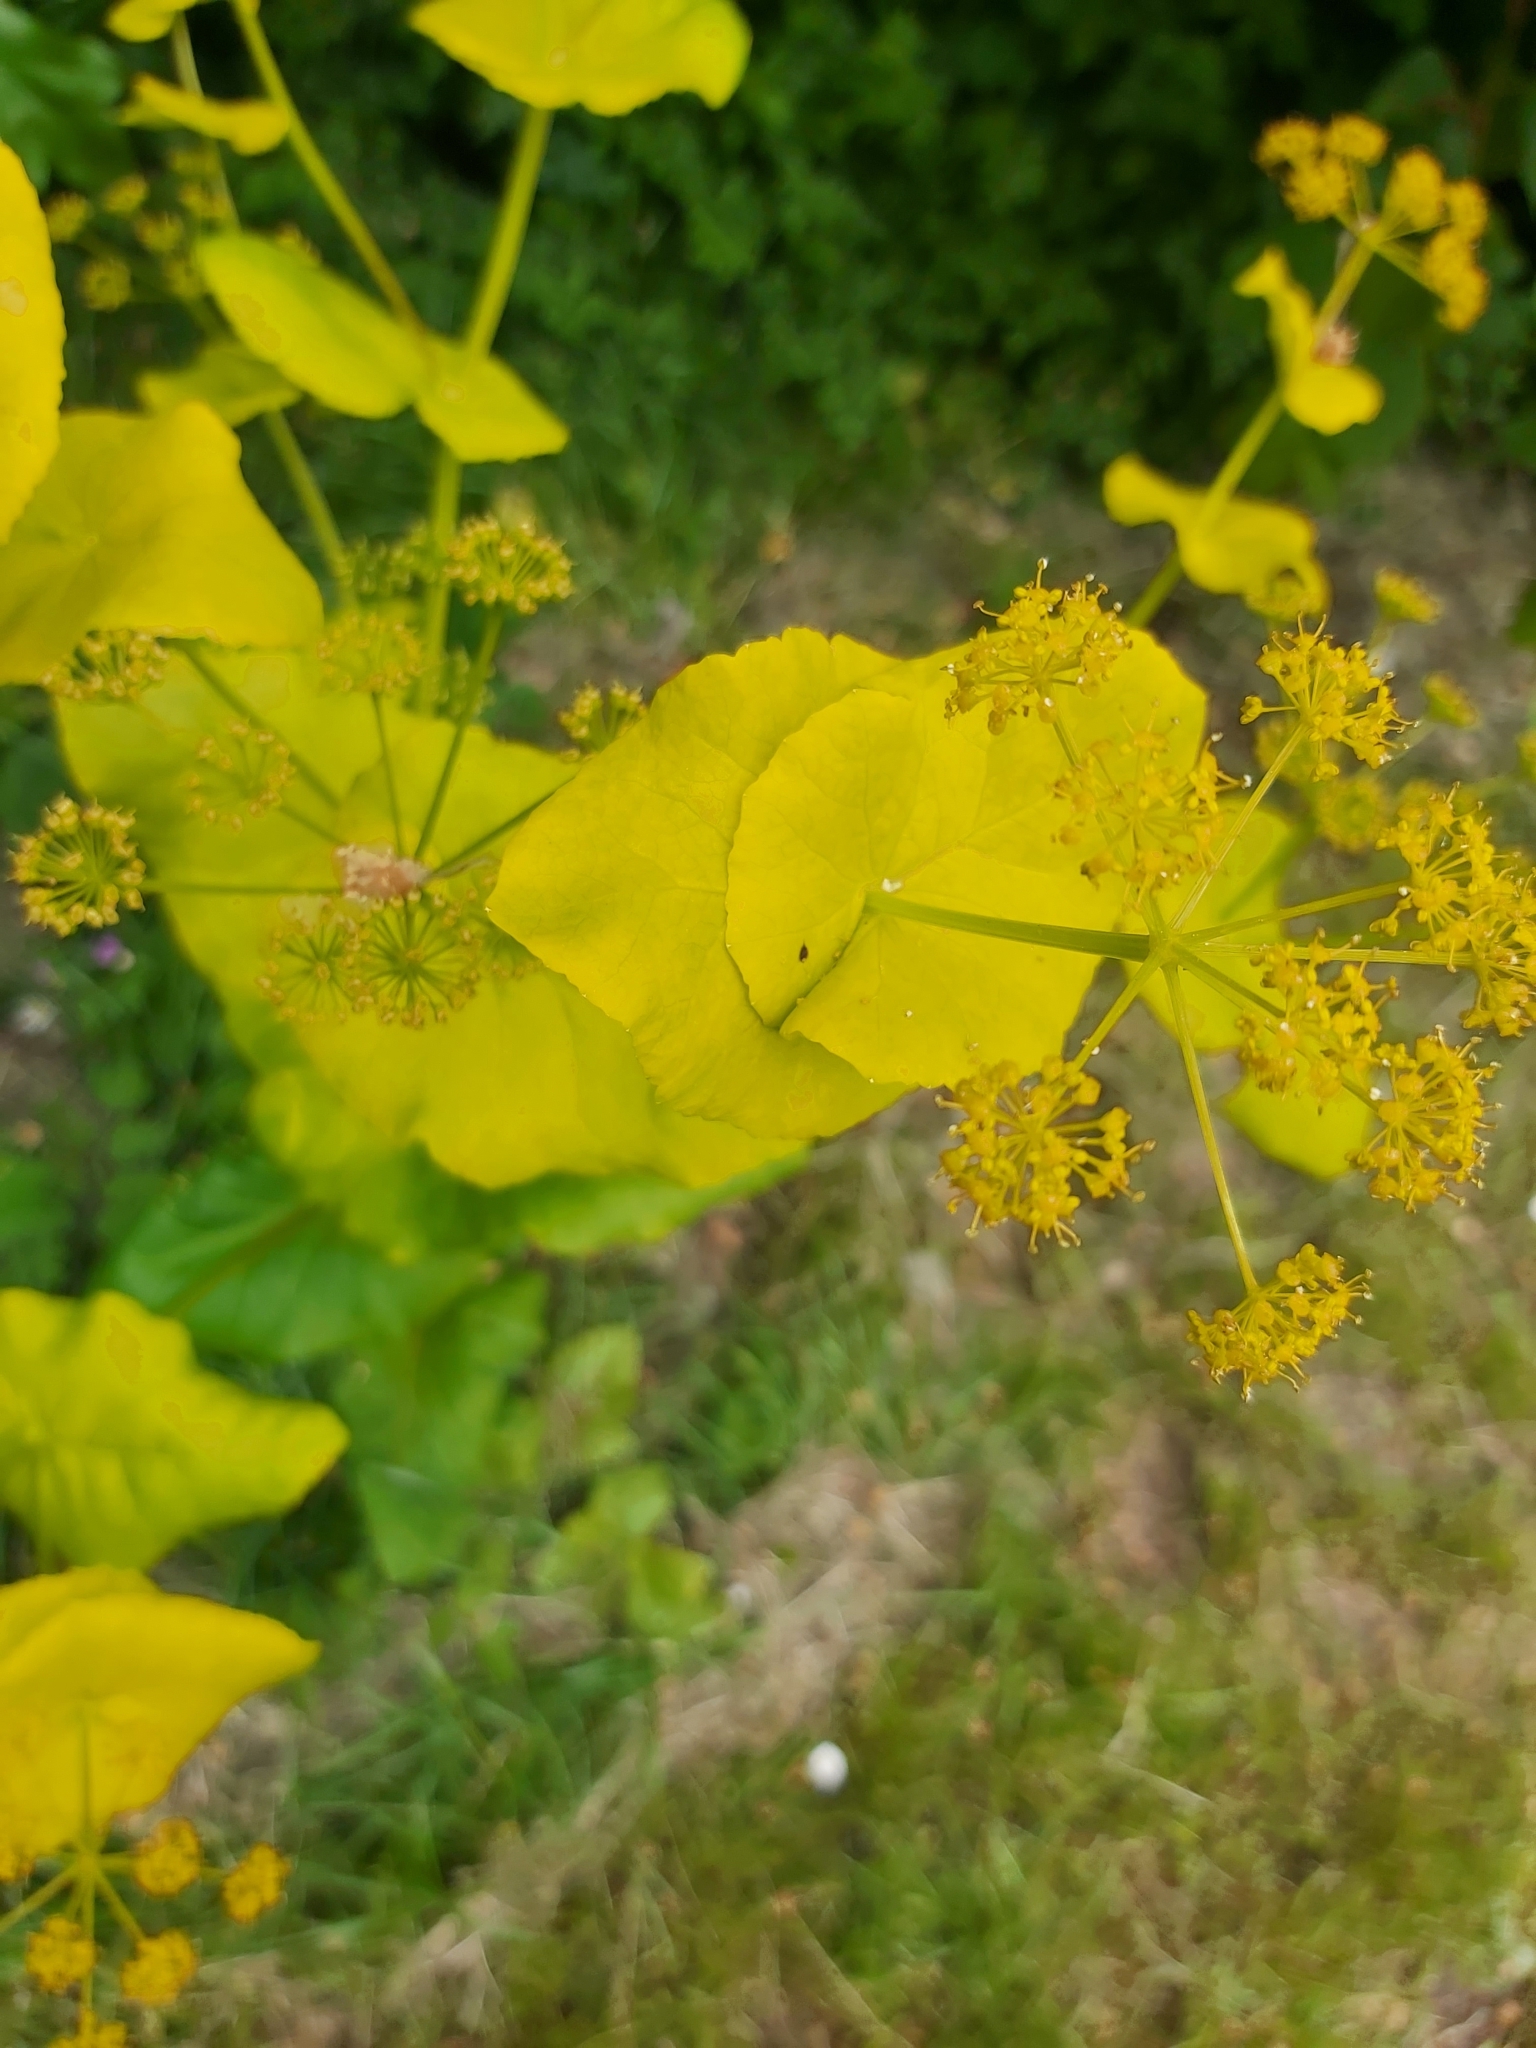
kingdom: Plantae
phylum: Tracheophyta
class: Magnoliopsida
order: Apiales
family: Apiaceae
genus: Smyrnium
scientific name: Smyrnium perfoliatum
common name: Perfoliate alexanders
